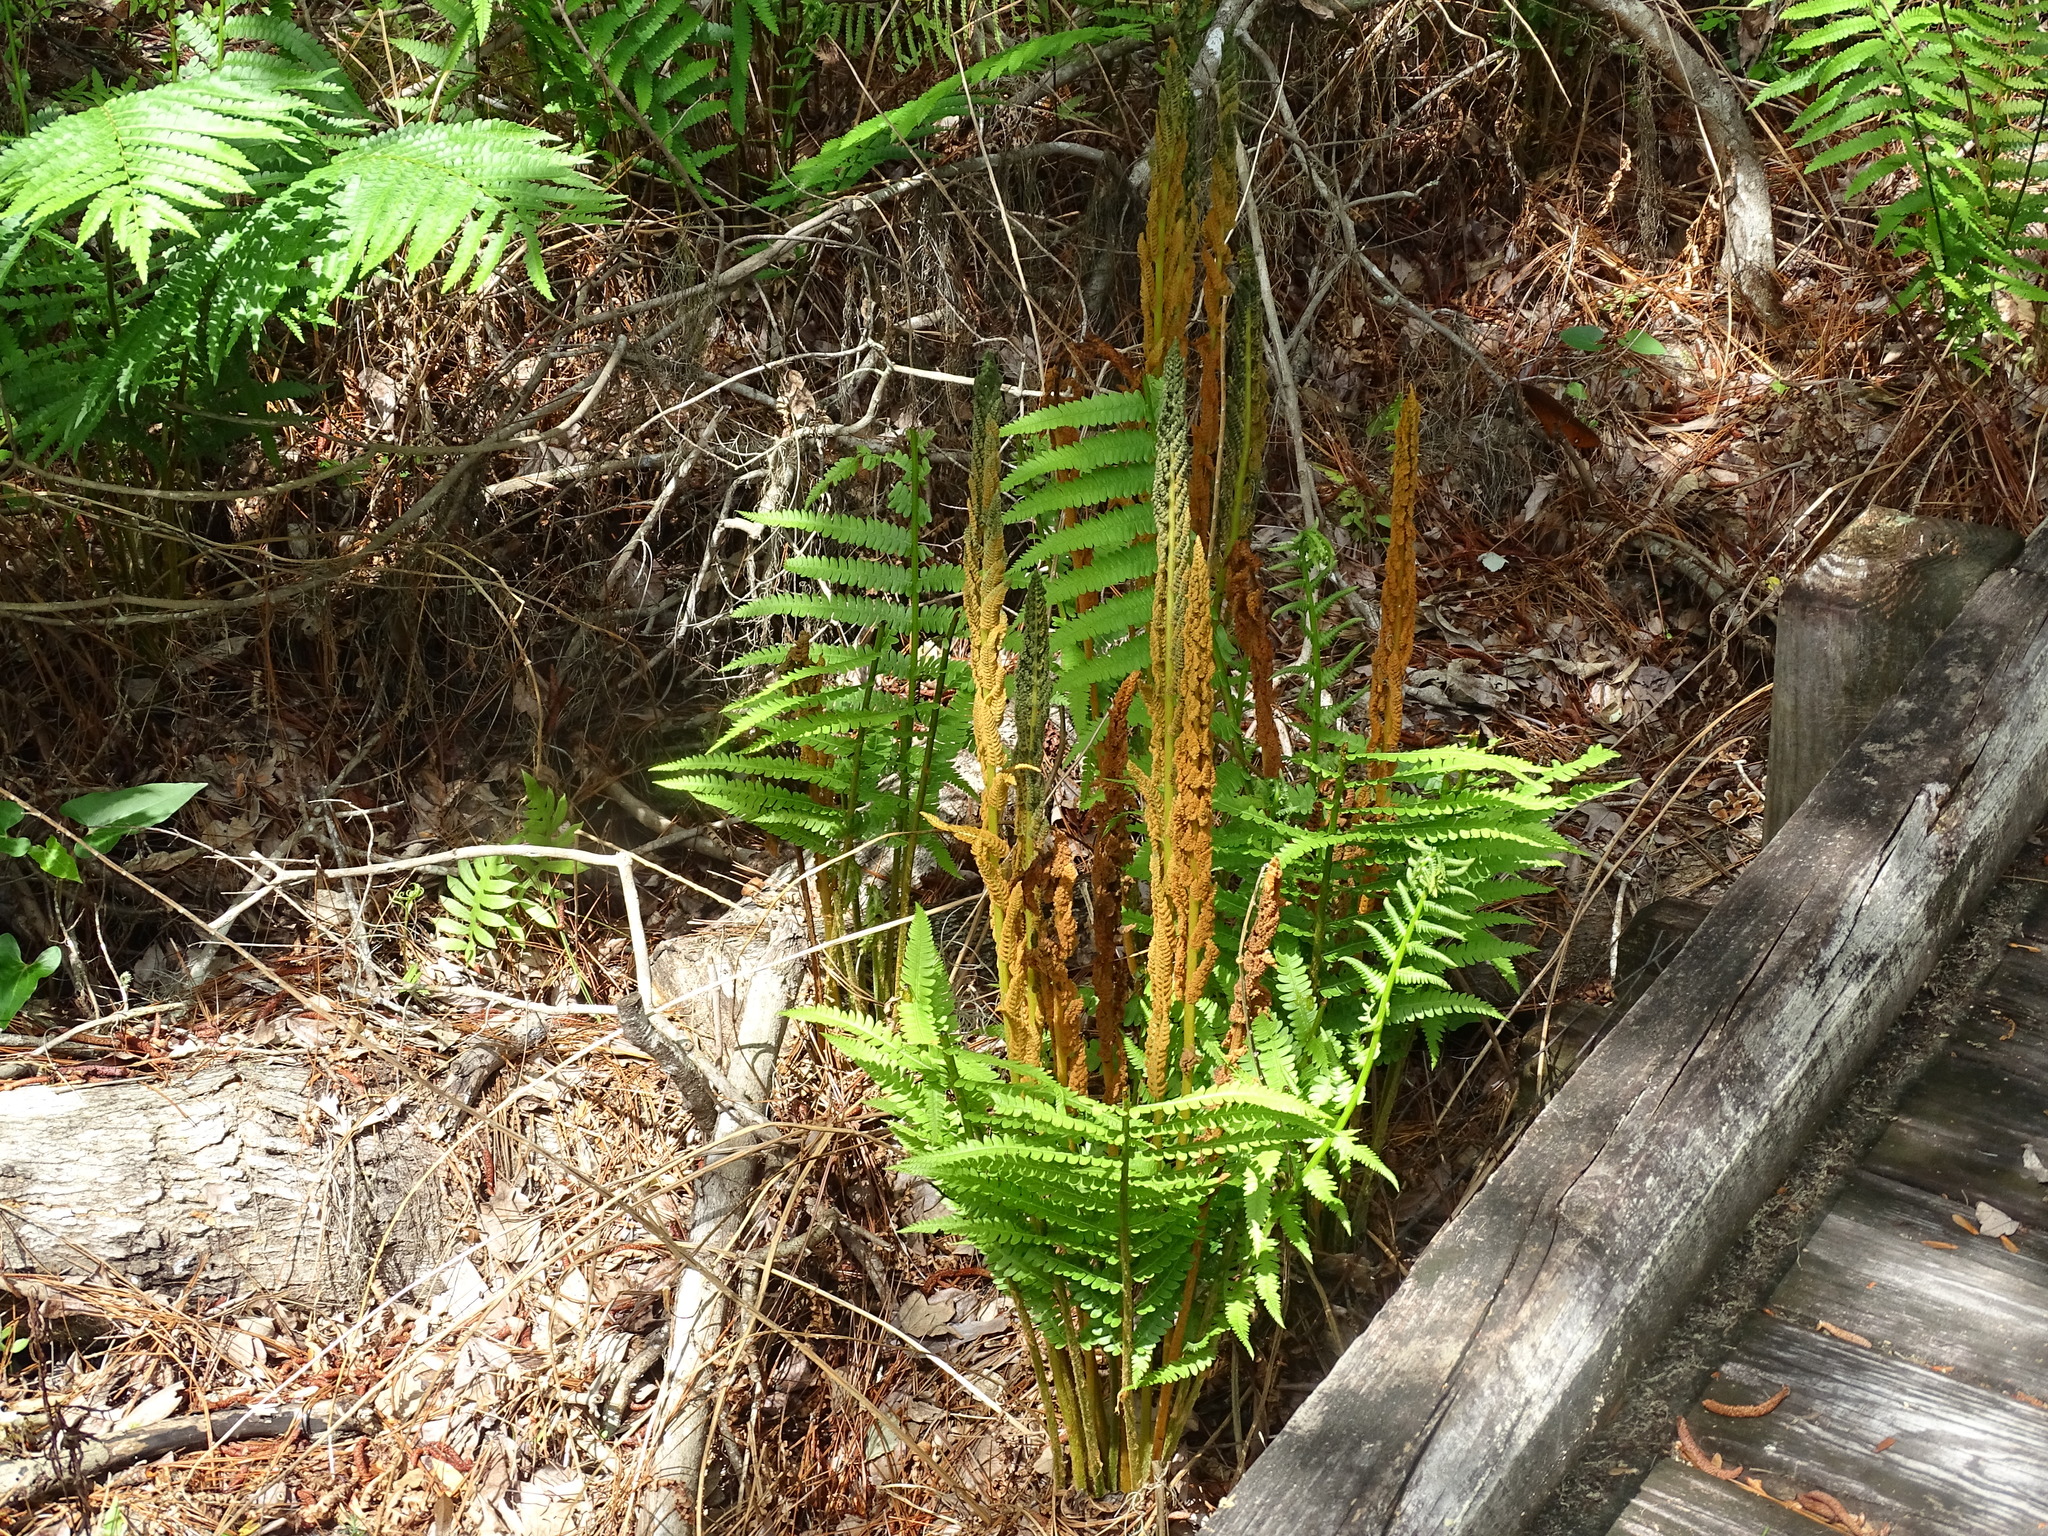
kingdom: Plantae
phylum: Tracheophyta
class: Polypodiopsida
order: Osmundales
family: Osmundaceae
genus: Osmundastrum
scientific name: Osmundastrum cinnamomeum
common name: Cinnamon fern
